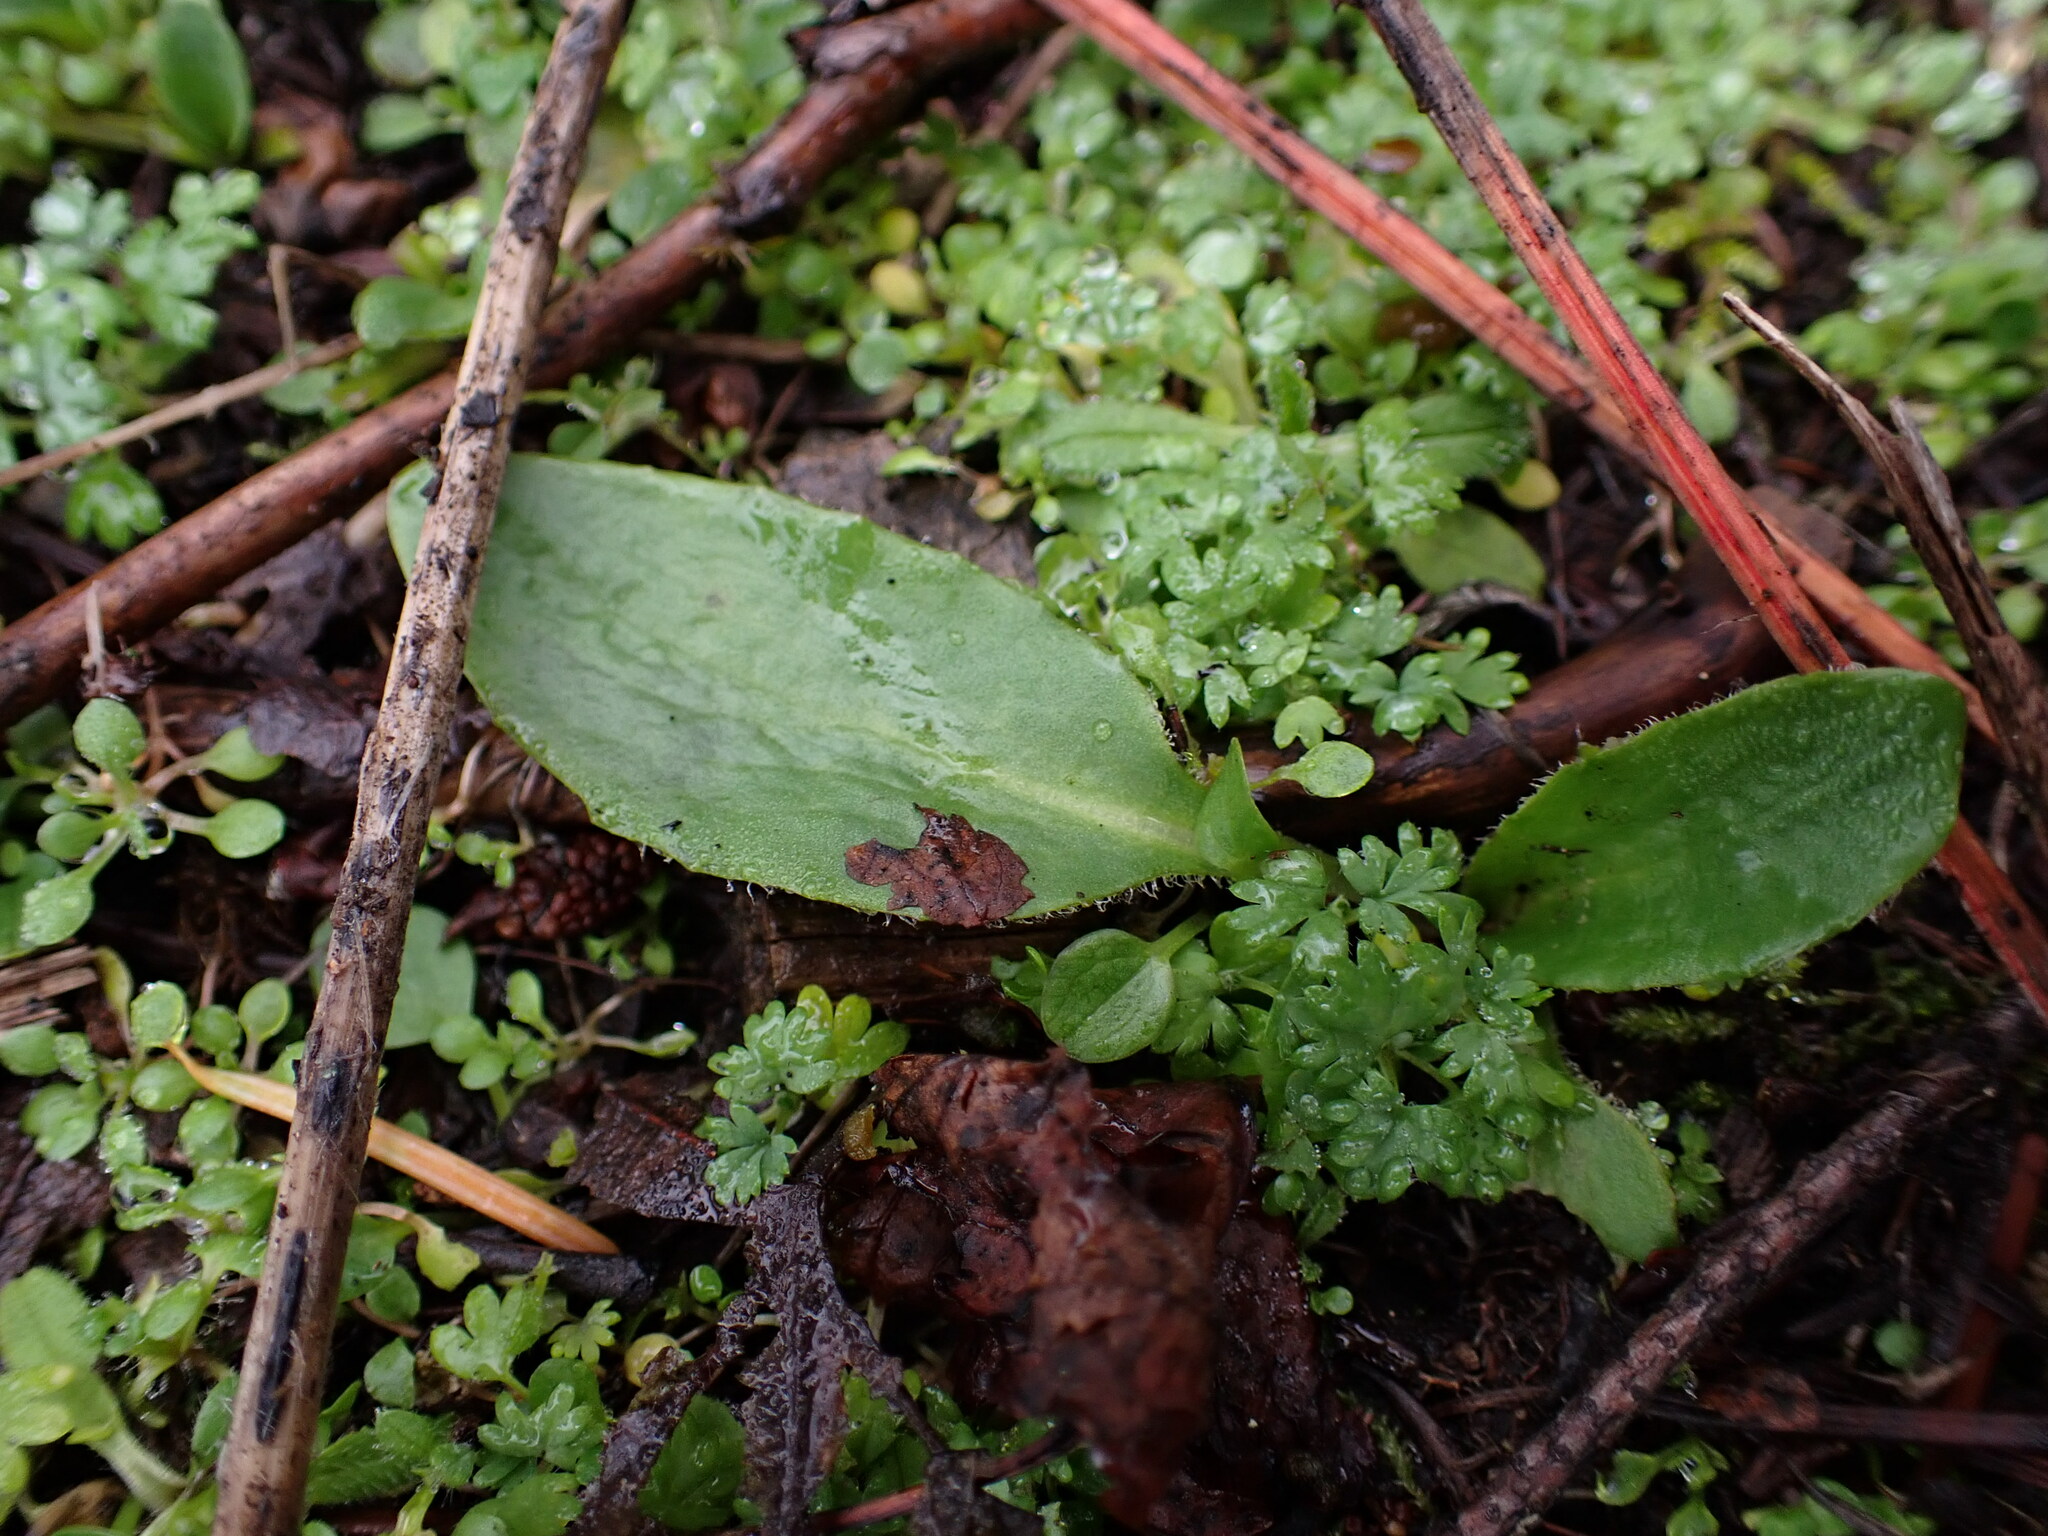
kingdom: Plantae
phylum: Tracheophyta
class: Magnoliopsida
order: Saxifragales
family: Saxifragaceae
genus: Micranthes
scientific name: Micranthes integrifolia
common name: Wholeleaf saxifrage
